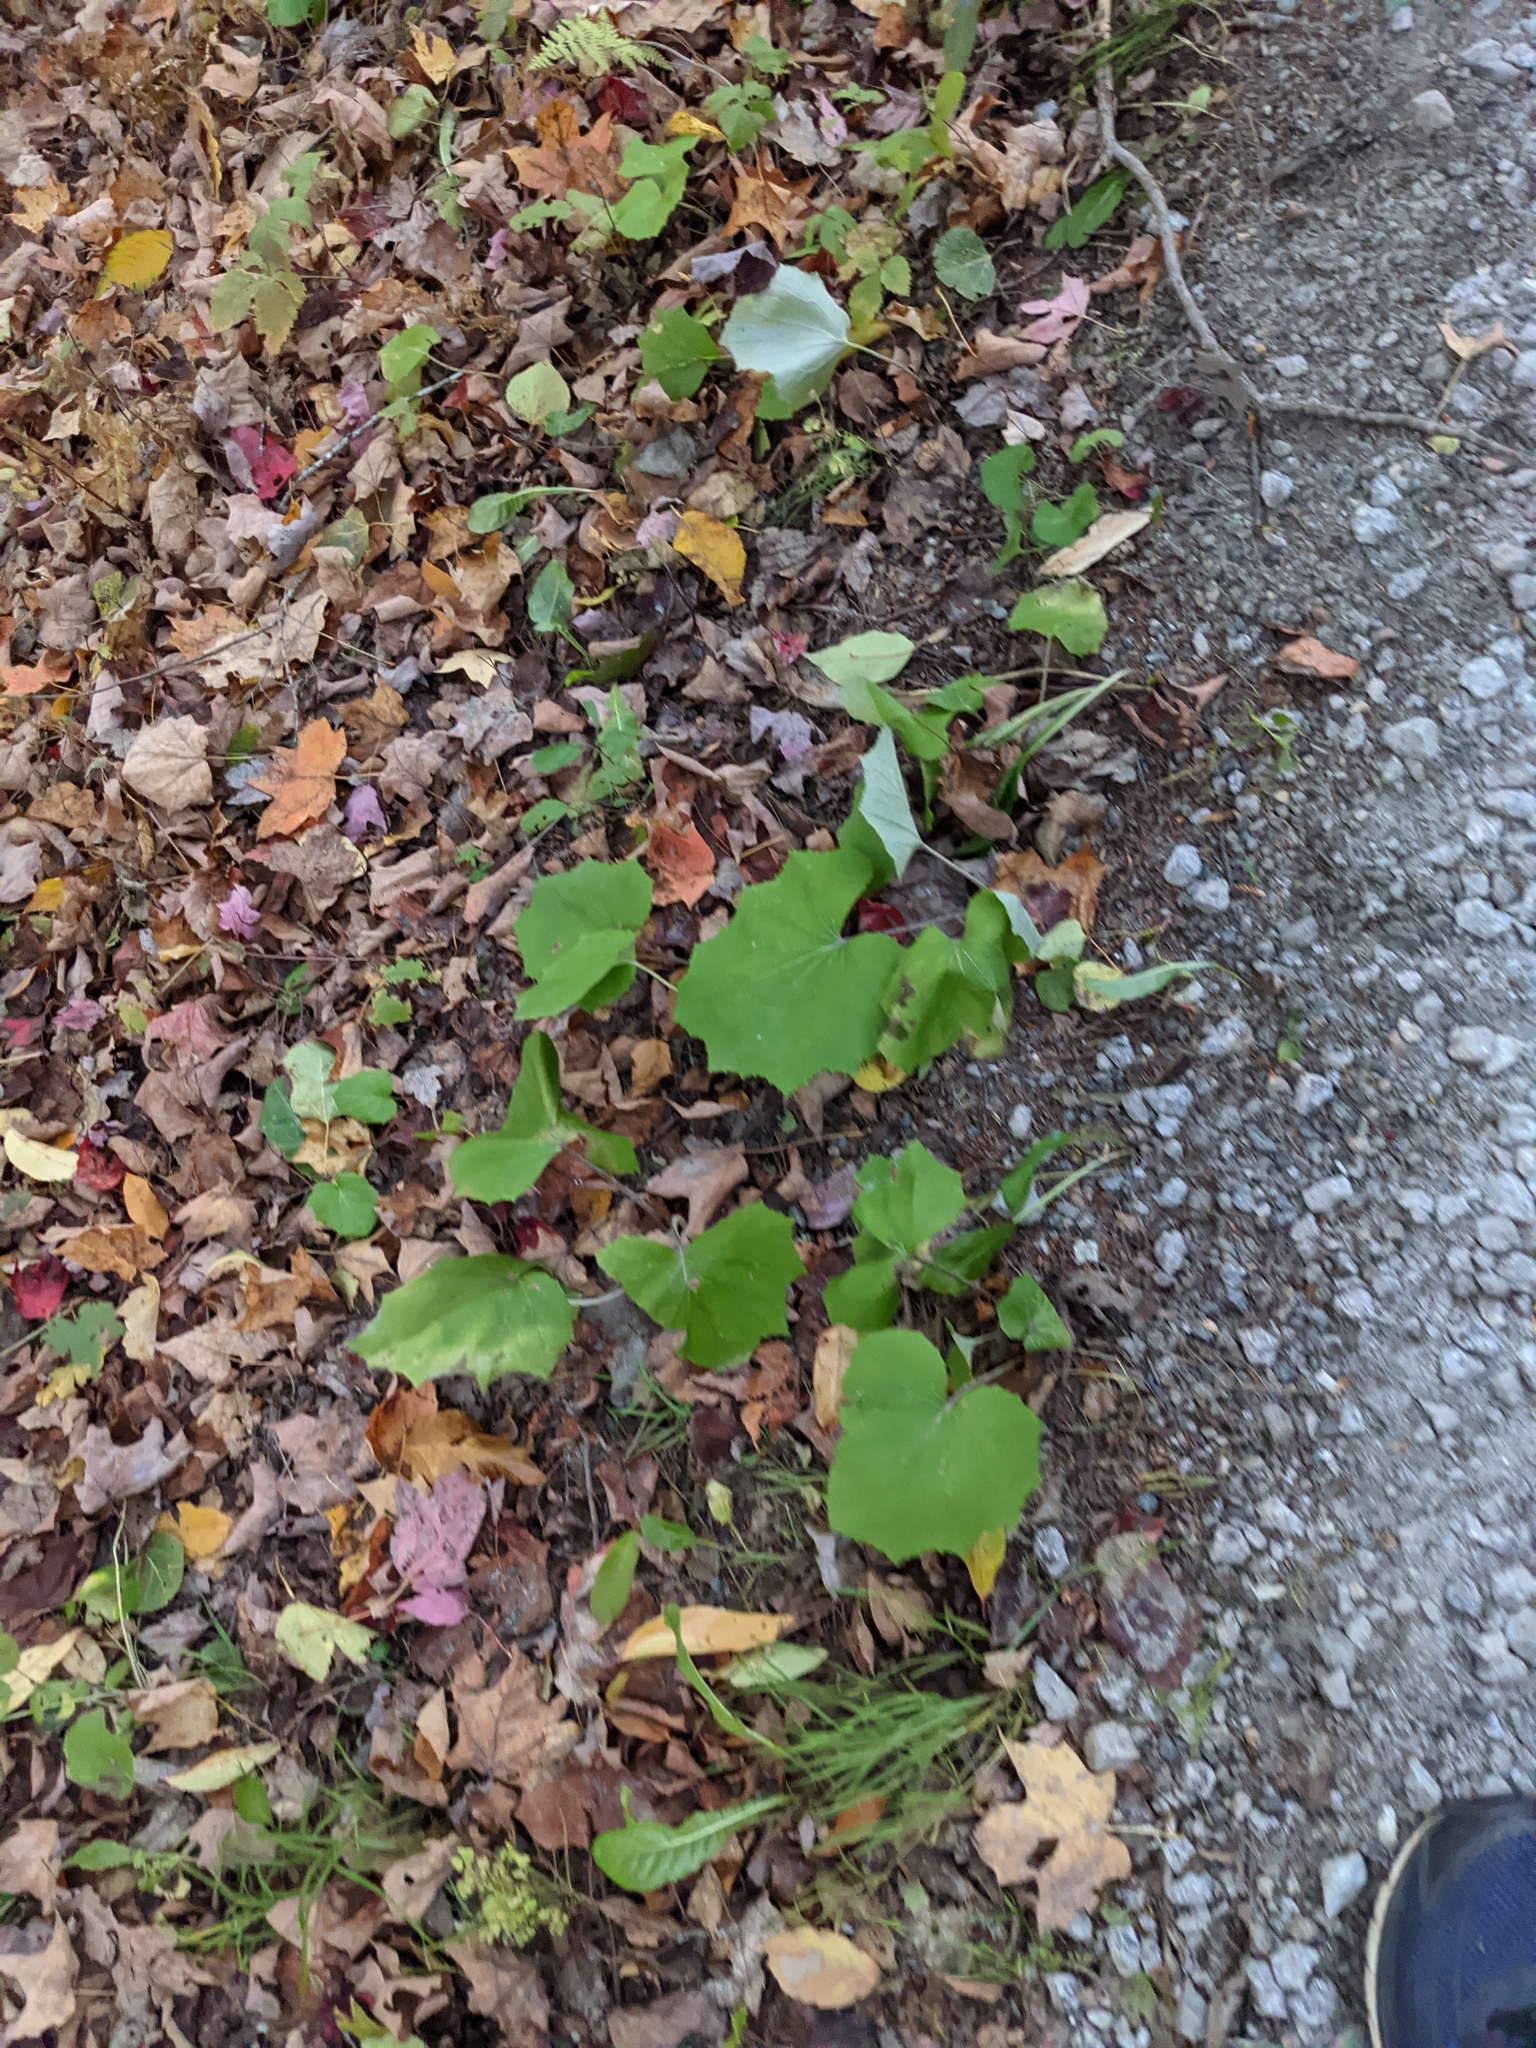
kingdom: Plantae
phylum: Tracheophyta
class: Magnoliopsida
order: Asterales
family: Asteraceae
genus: Tussilago
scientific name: Tussilago farfara
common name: Coltsfoot
